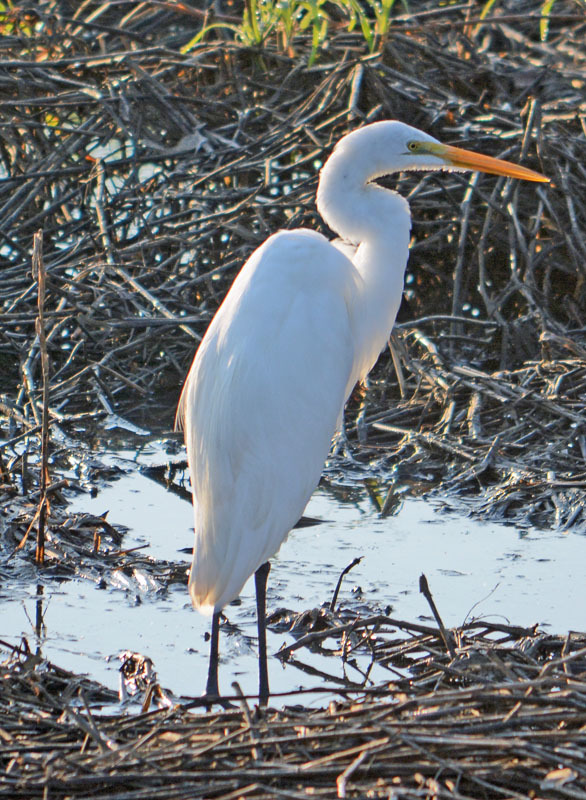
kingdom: Animalia
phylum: Chordata
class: Aves
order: Pelecaniformes
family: Ardeidae
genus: Ardea
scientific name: Ardea alba
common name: Great egret
